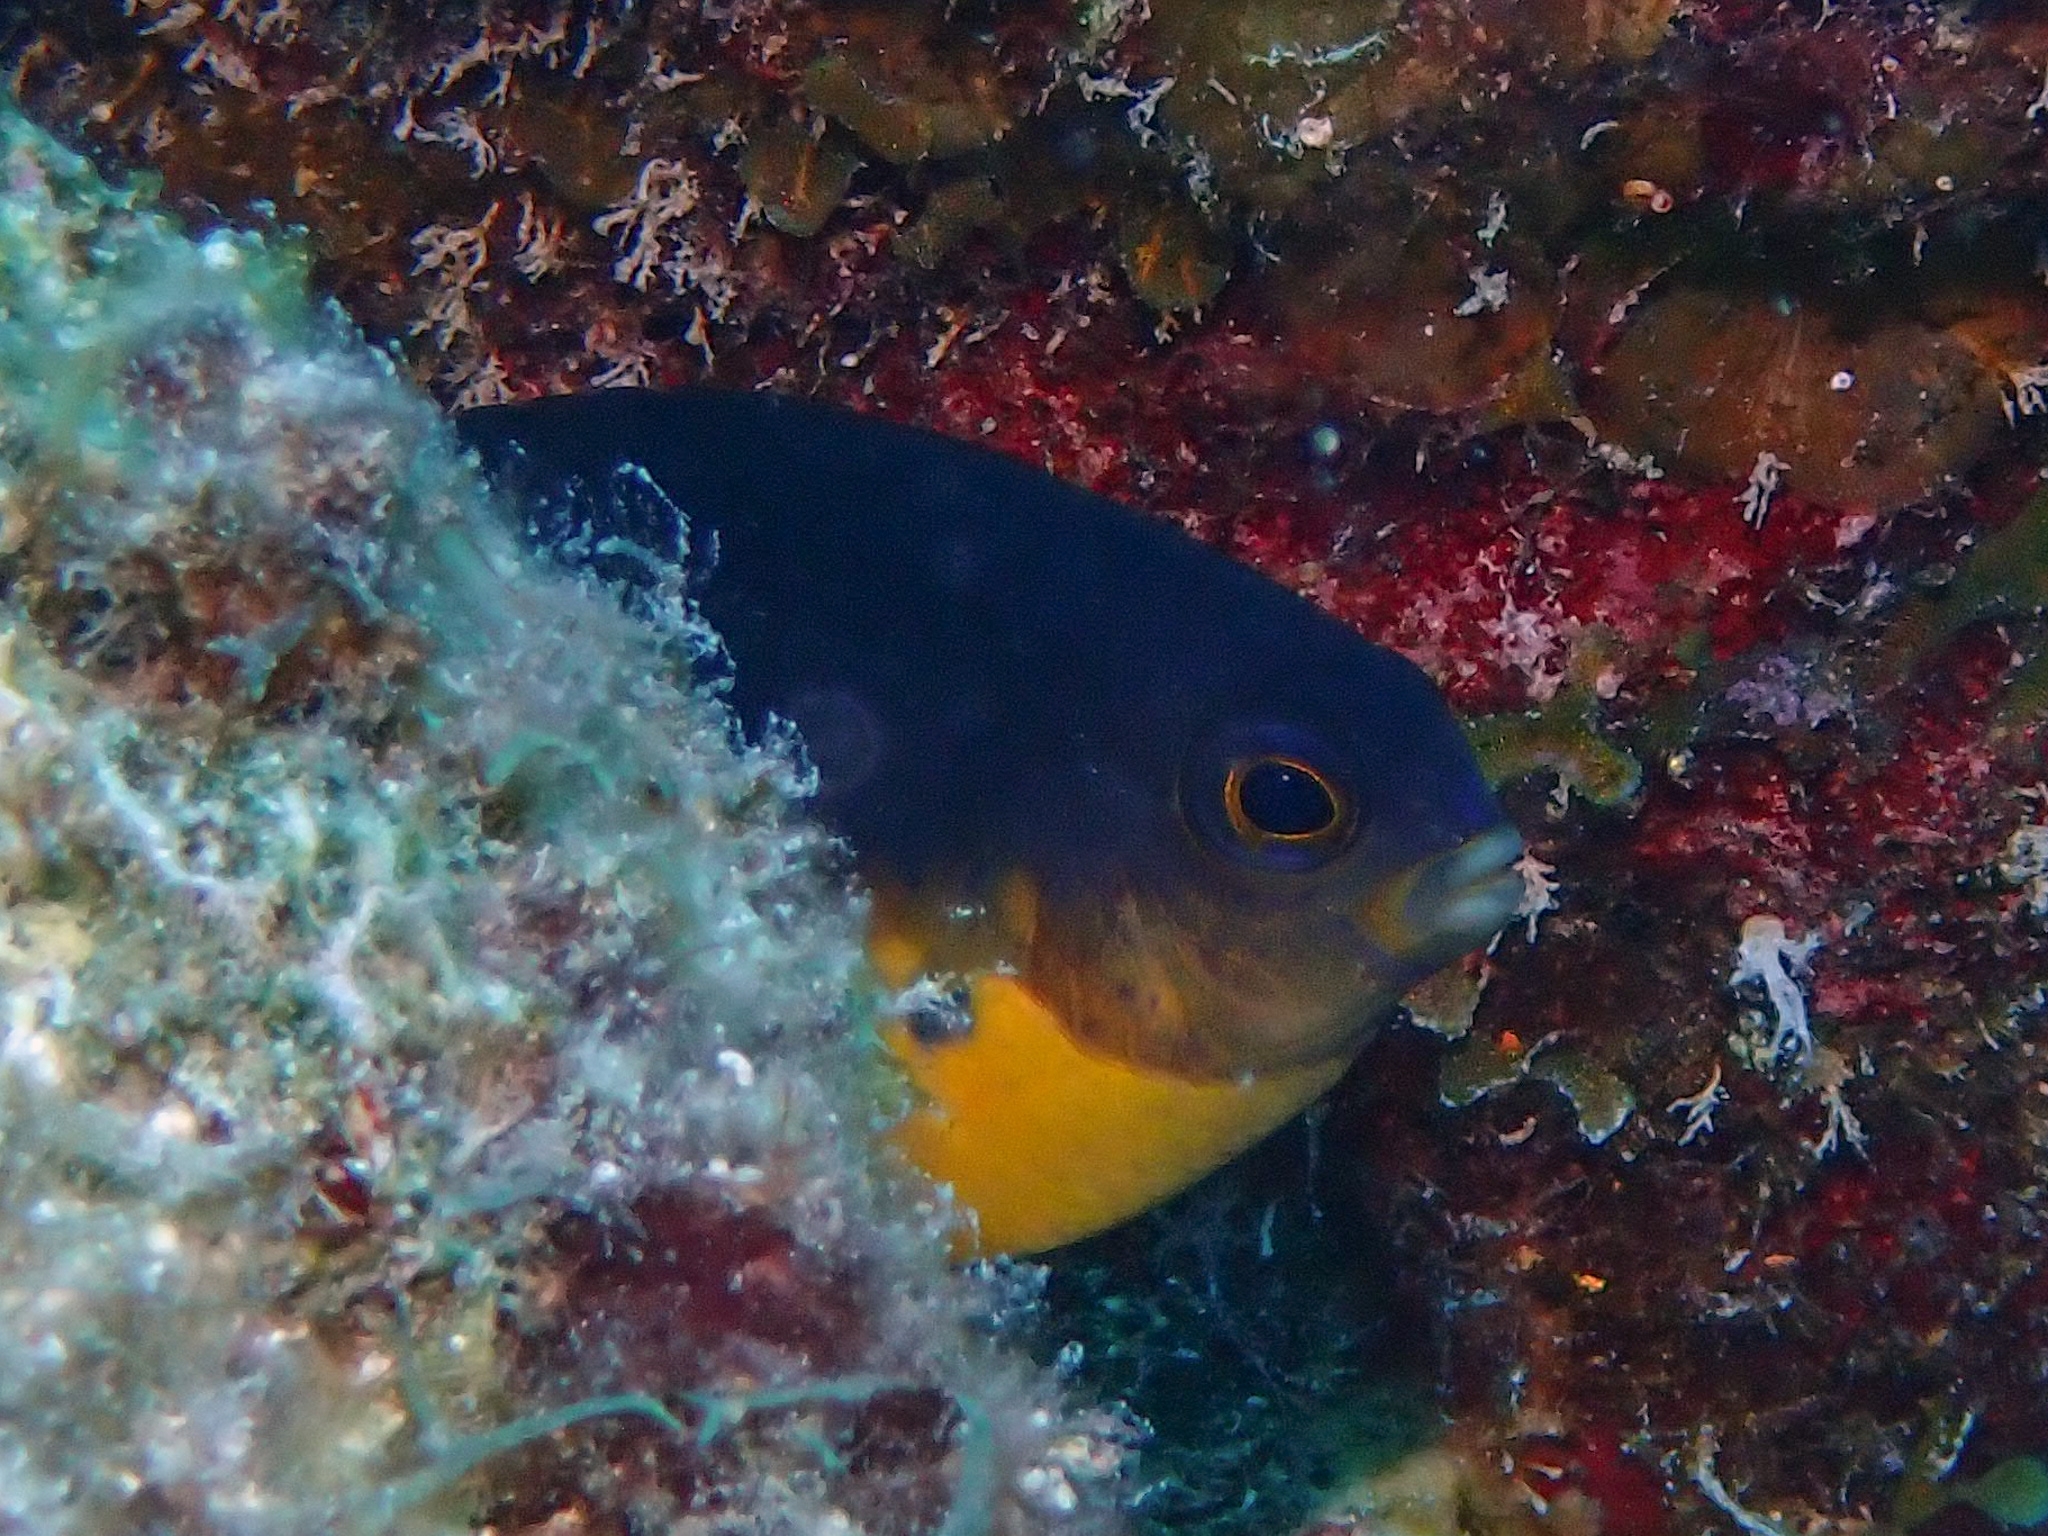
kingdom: Animalia
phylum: Chordata
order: Perciformes
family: Pomacentridae
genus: Stegastes
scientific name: Stegastes partitus
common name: Bicolor damselfish
